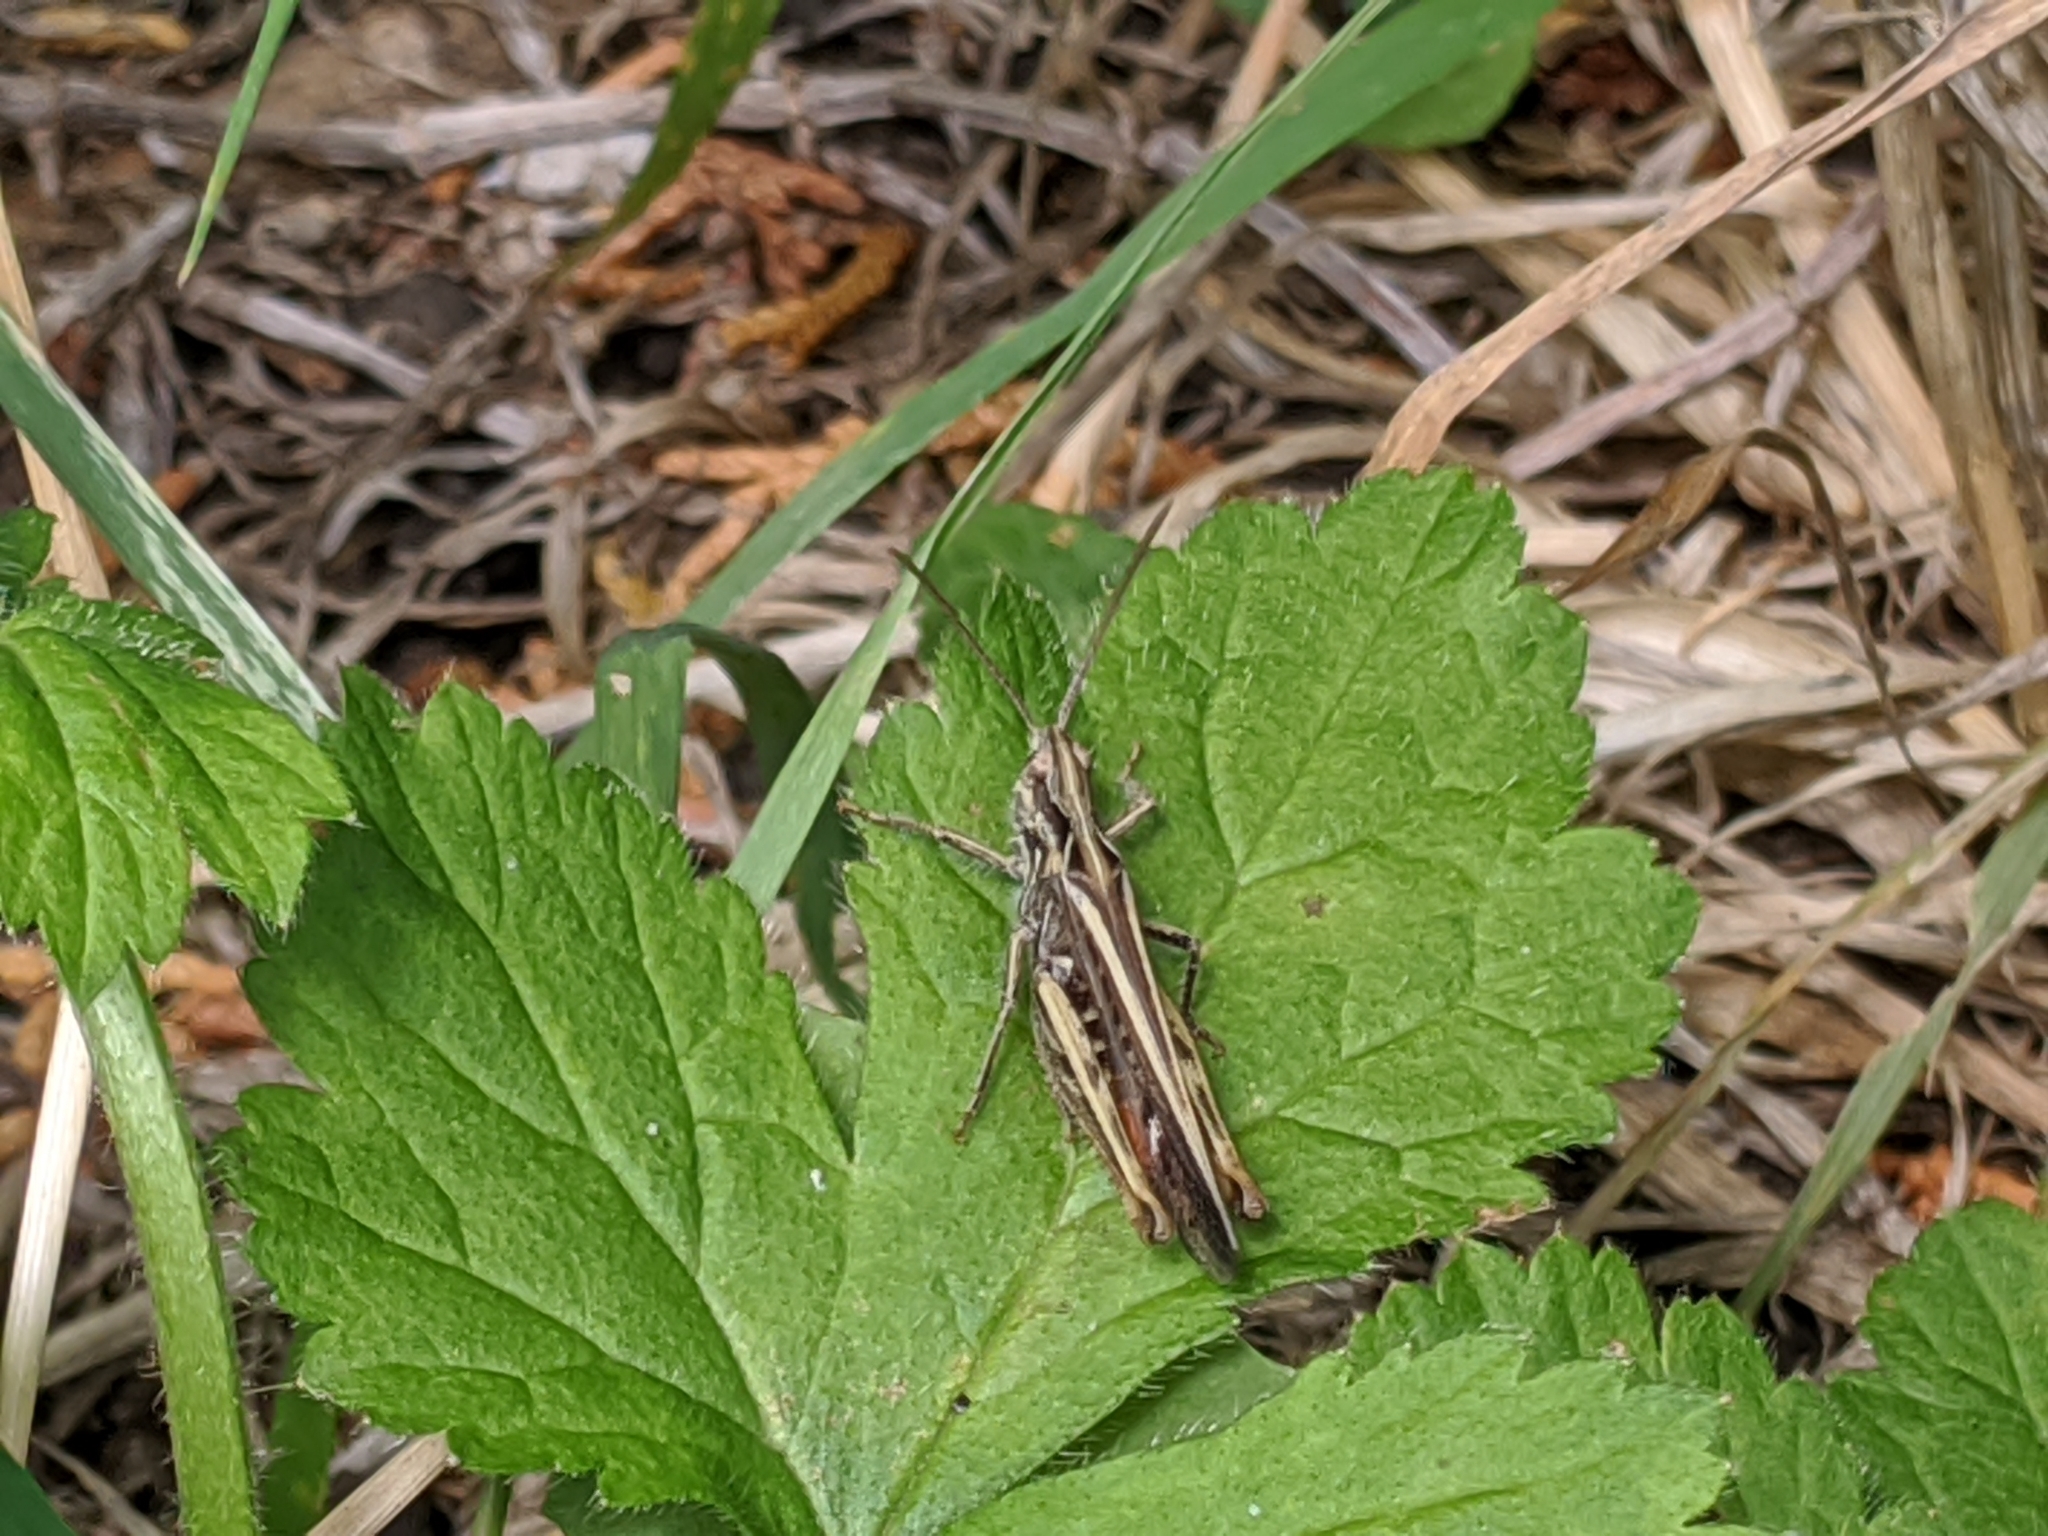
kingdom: Animalia
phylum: Arthropoda
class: Insecta
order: Orthoptera
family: Acrididae
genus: Chorthippus
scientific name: Chorthippus brunneus
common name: Field grasshopper
